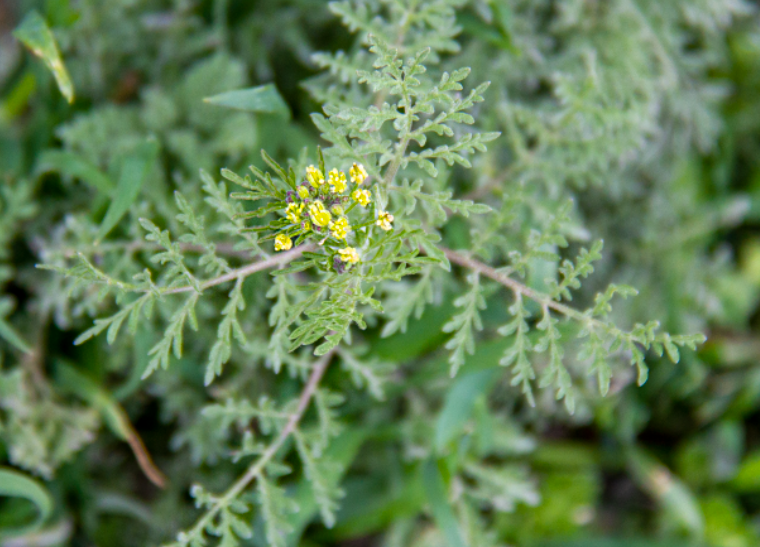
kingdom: Plantae
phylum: Tracheophyta
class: Magnoliopsida
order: Brassicales
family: Brassicaceae
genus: Descurainia
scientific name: Descurainia sophia
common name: Flixweed
